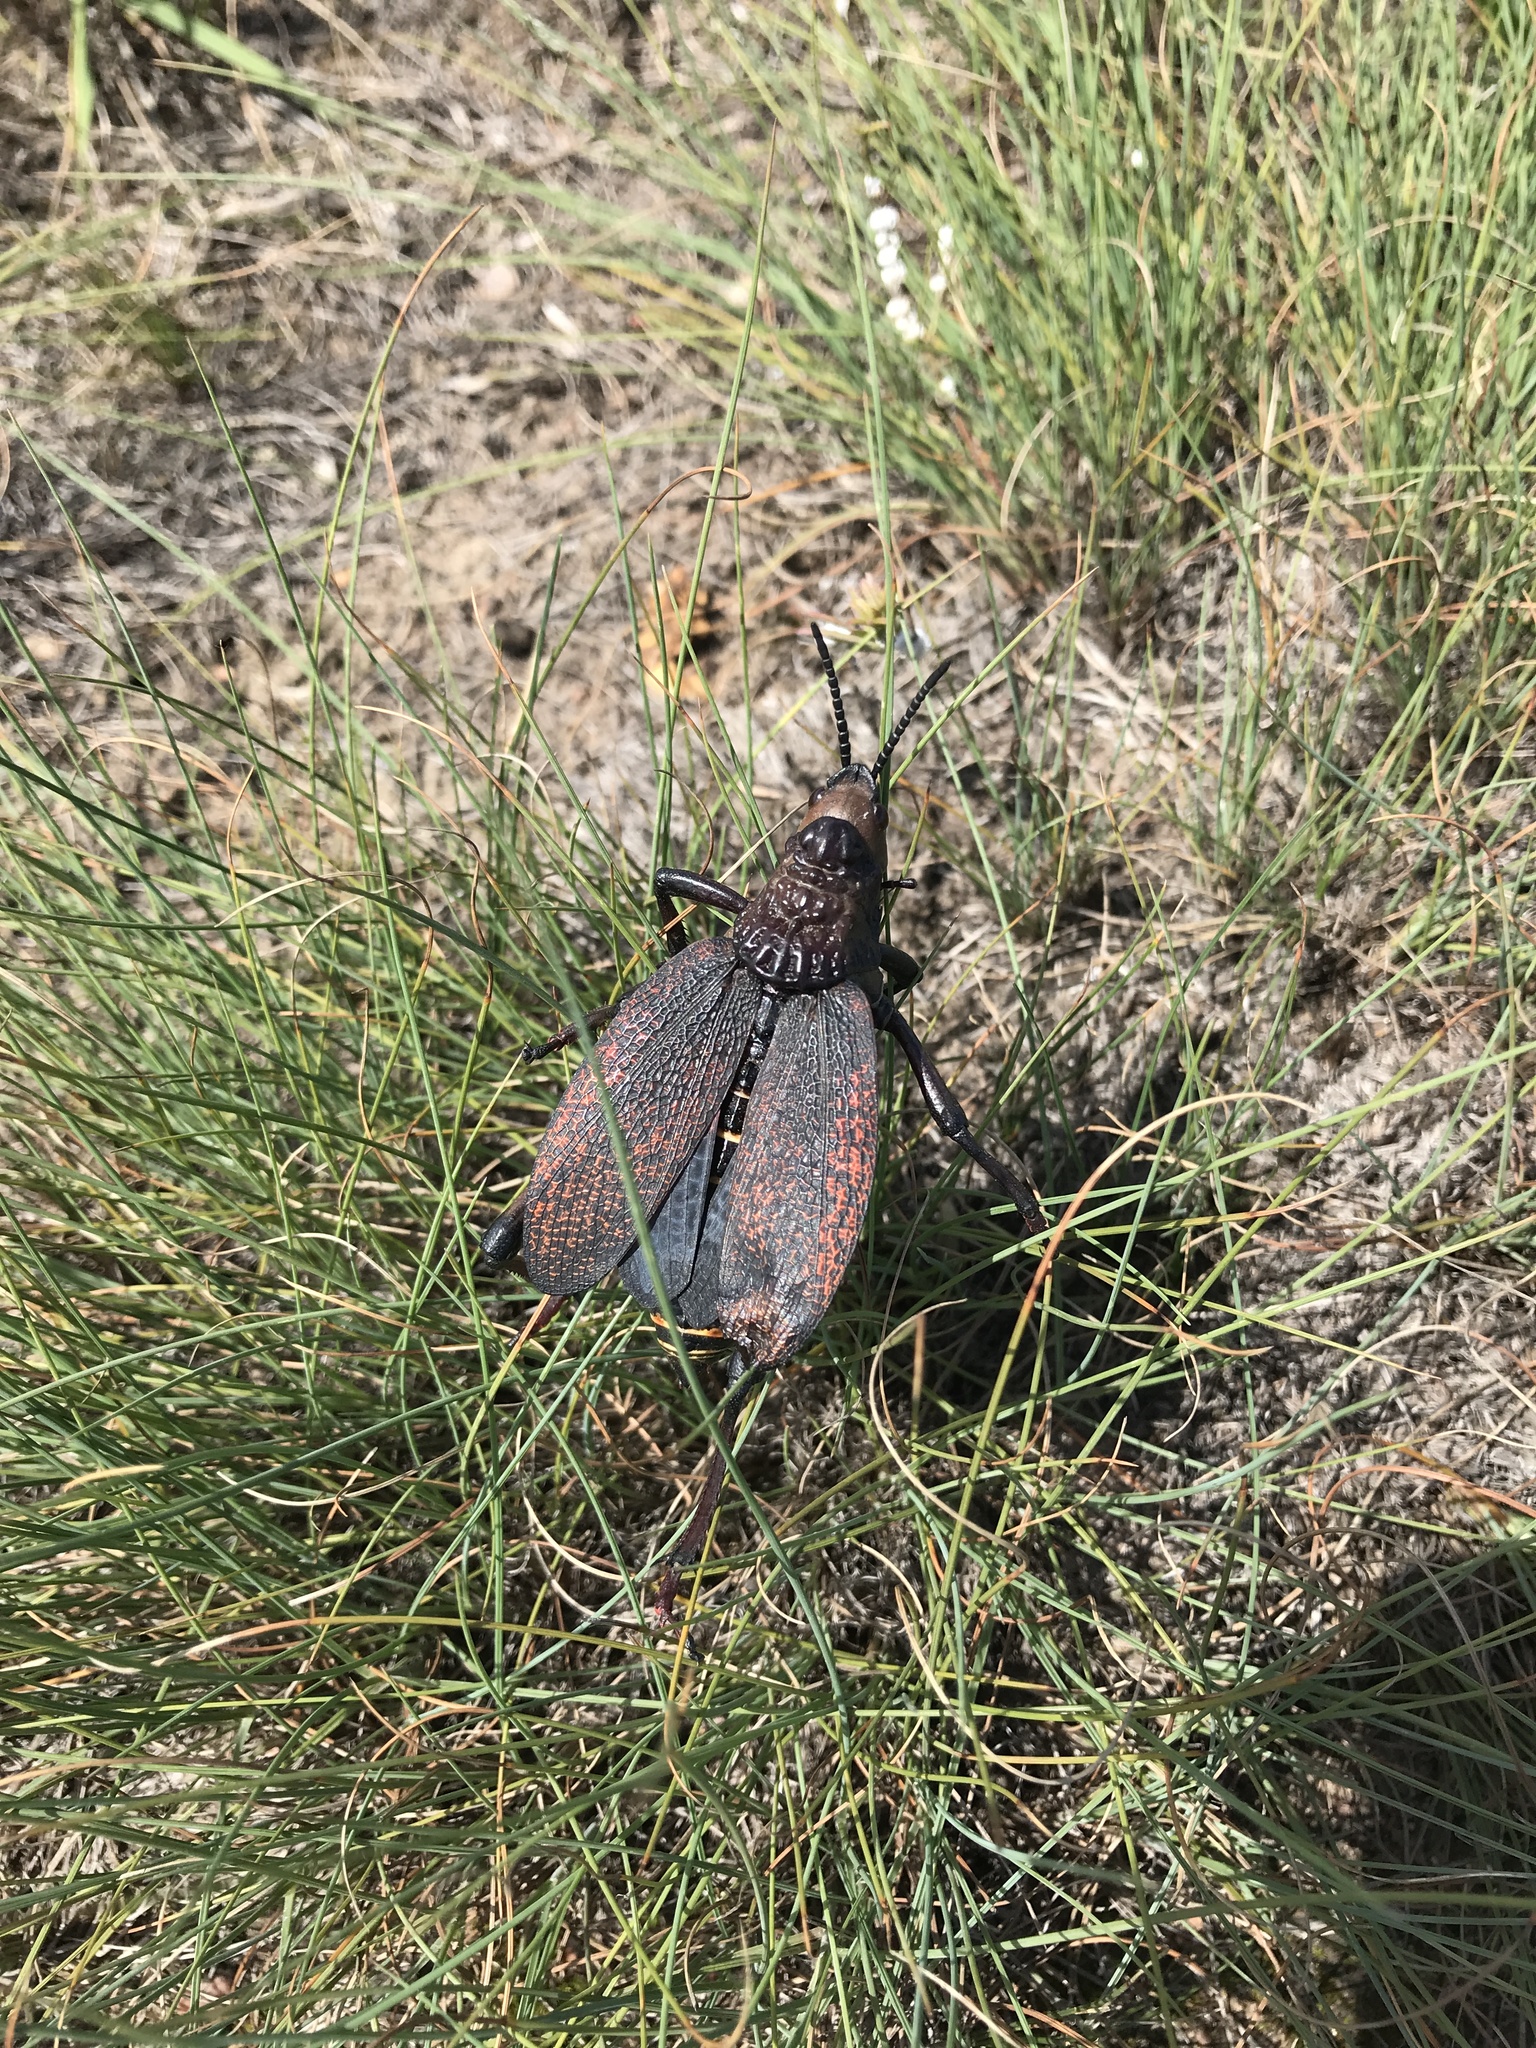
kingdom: Animalia
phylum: Arthropoda
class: Insecta
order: Orthoptera
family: Pyrgomorphidae
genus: Dictyophorus
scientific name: Dictyophorus spumans
